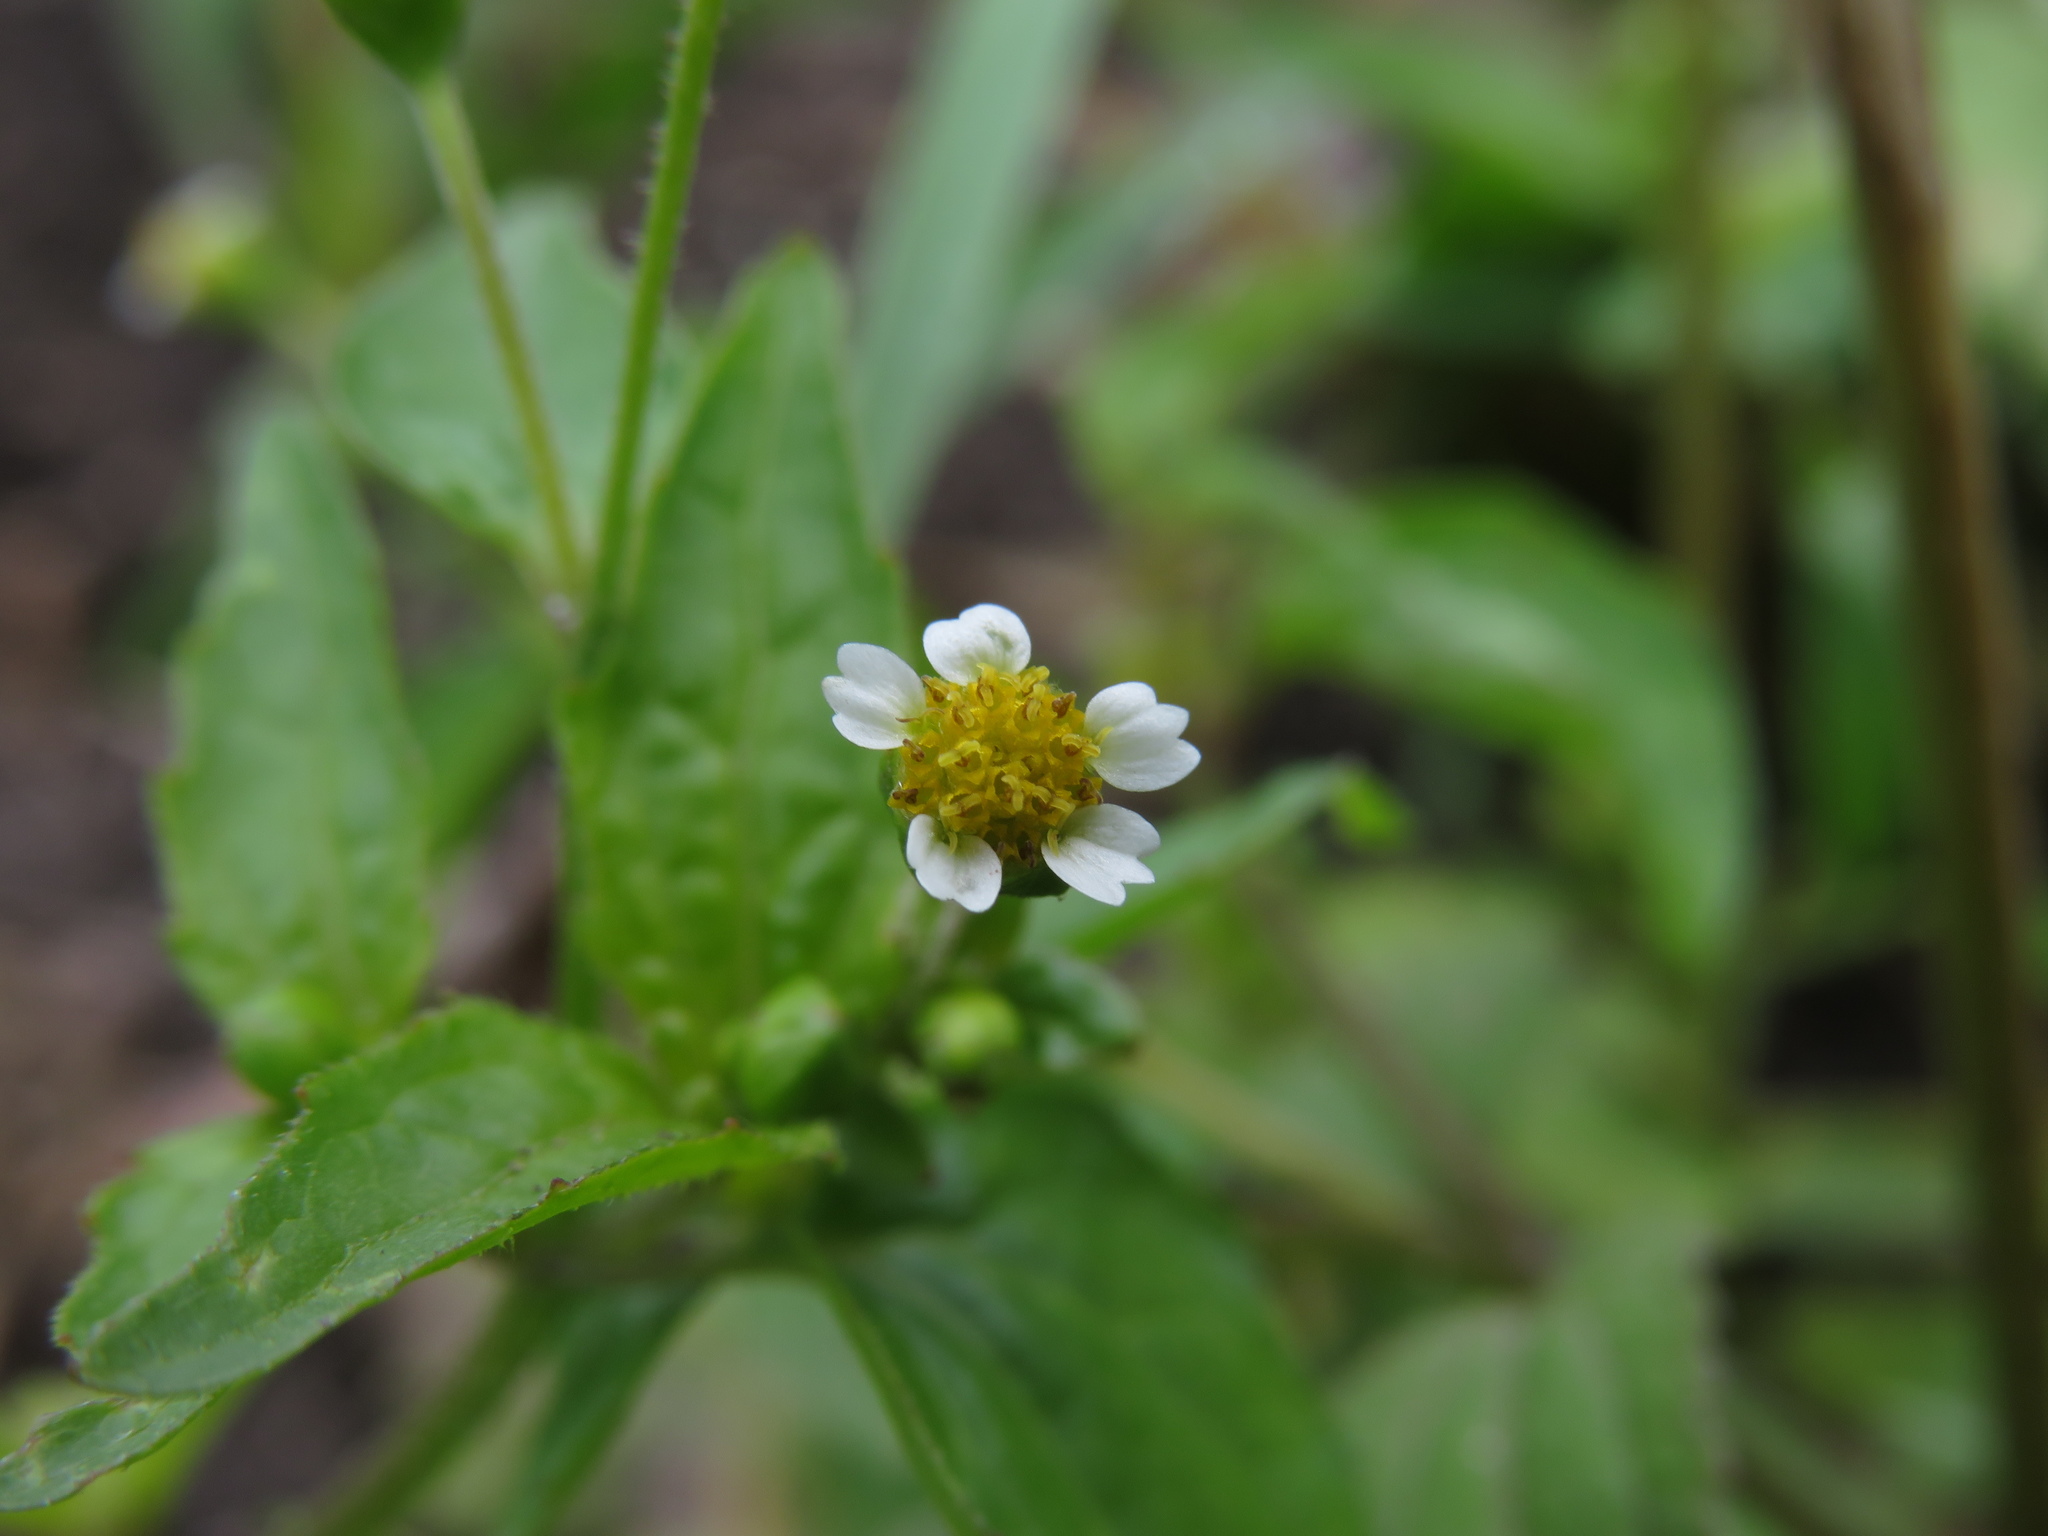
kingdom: Plantae
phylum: Tracheophyta
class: Magnoliopsida
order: Asterales
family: Asteraceae
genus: Galinsoga
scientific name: Galinsoga quadriradiata
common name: Shaggy soldier
